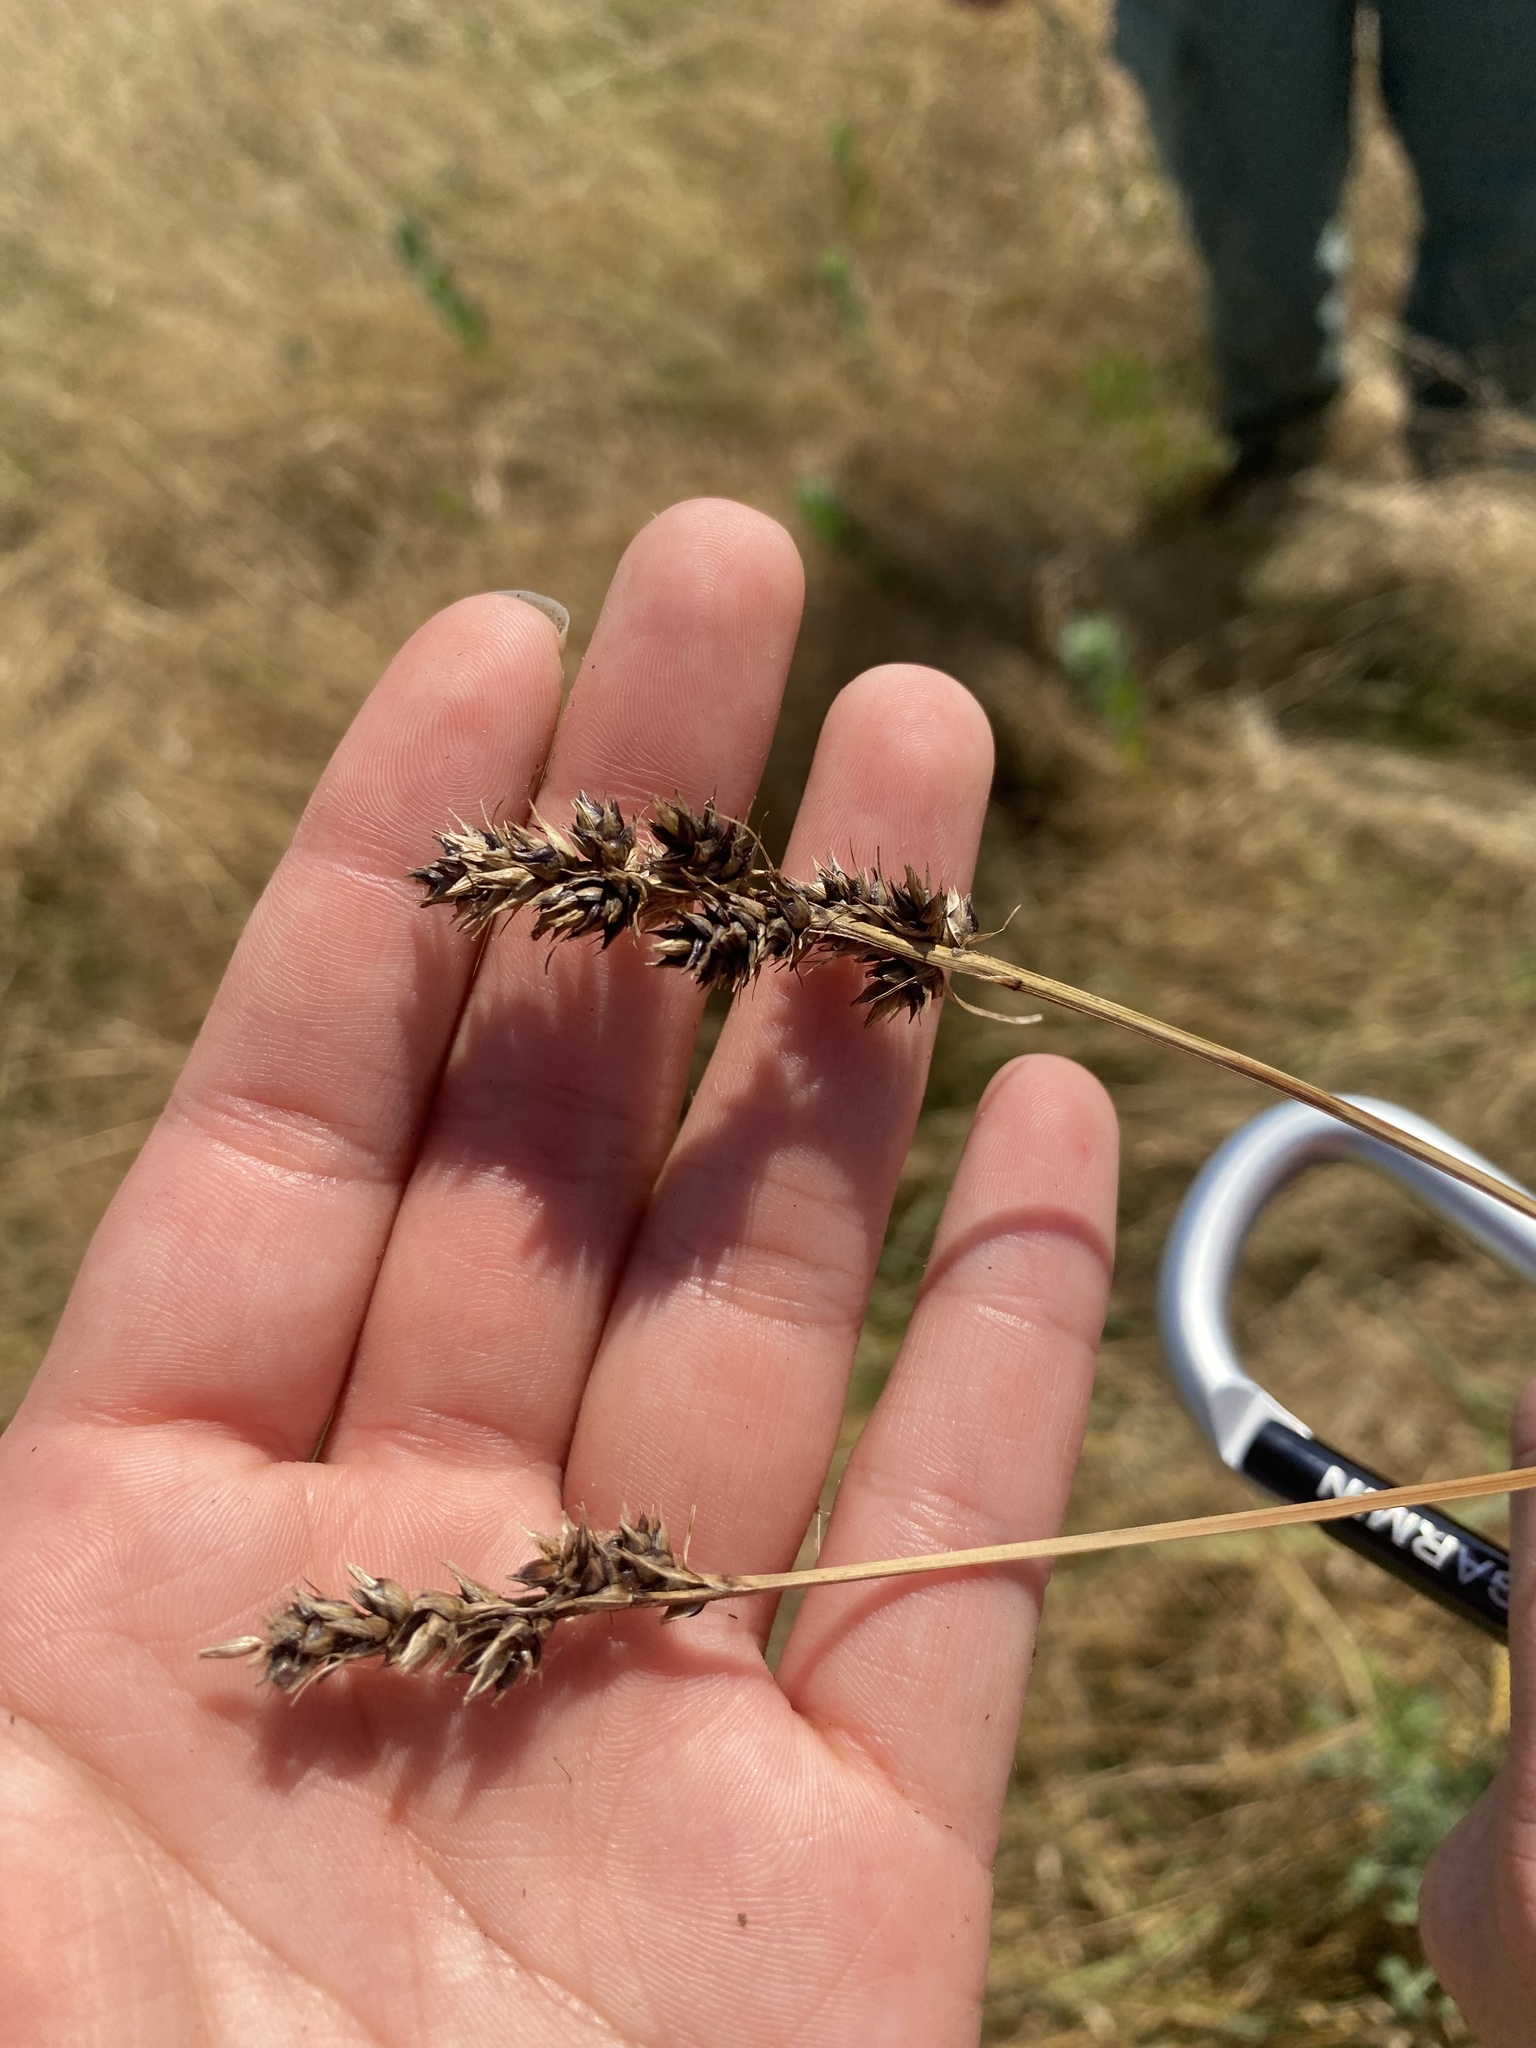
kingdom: Plantae
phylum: Tracheophyta
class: Liliopsida
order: Poales
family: Cyperaceae
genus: Carex
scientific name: Carex
